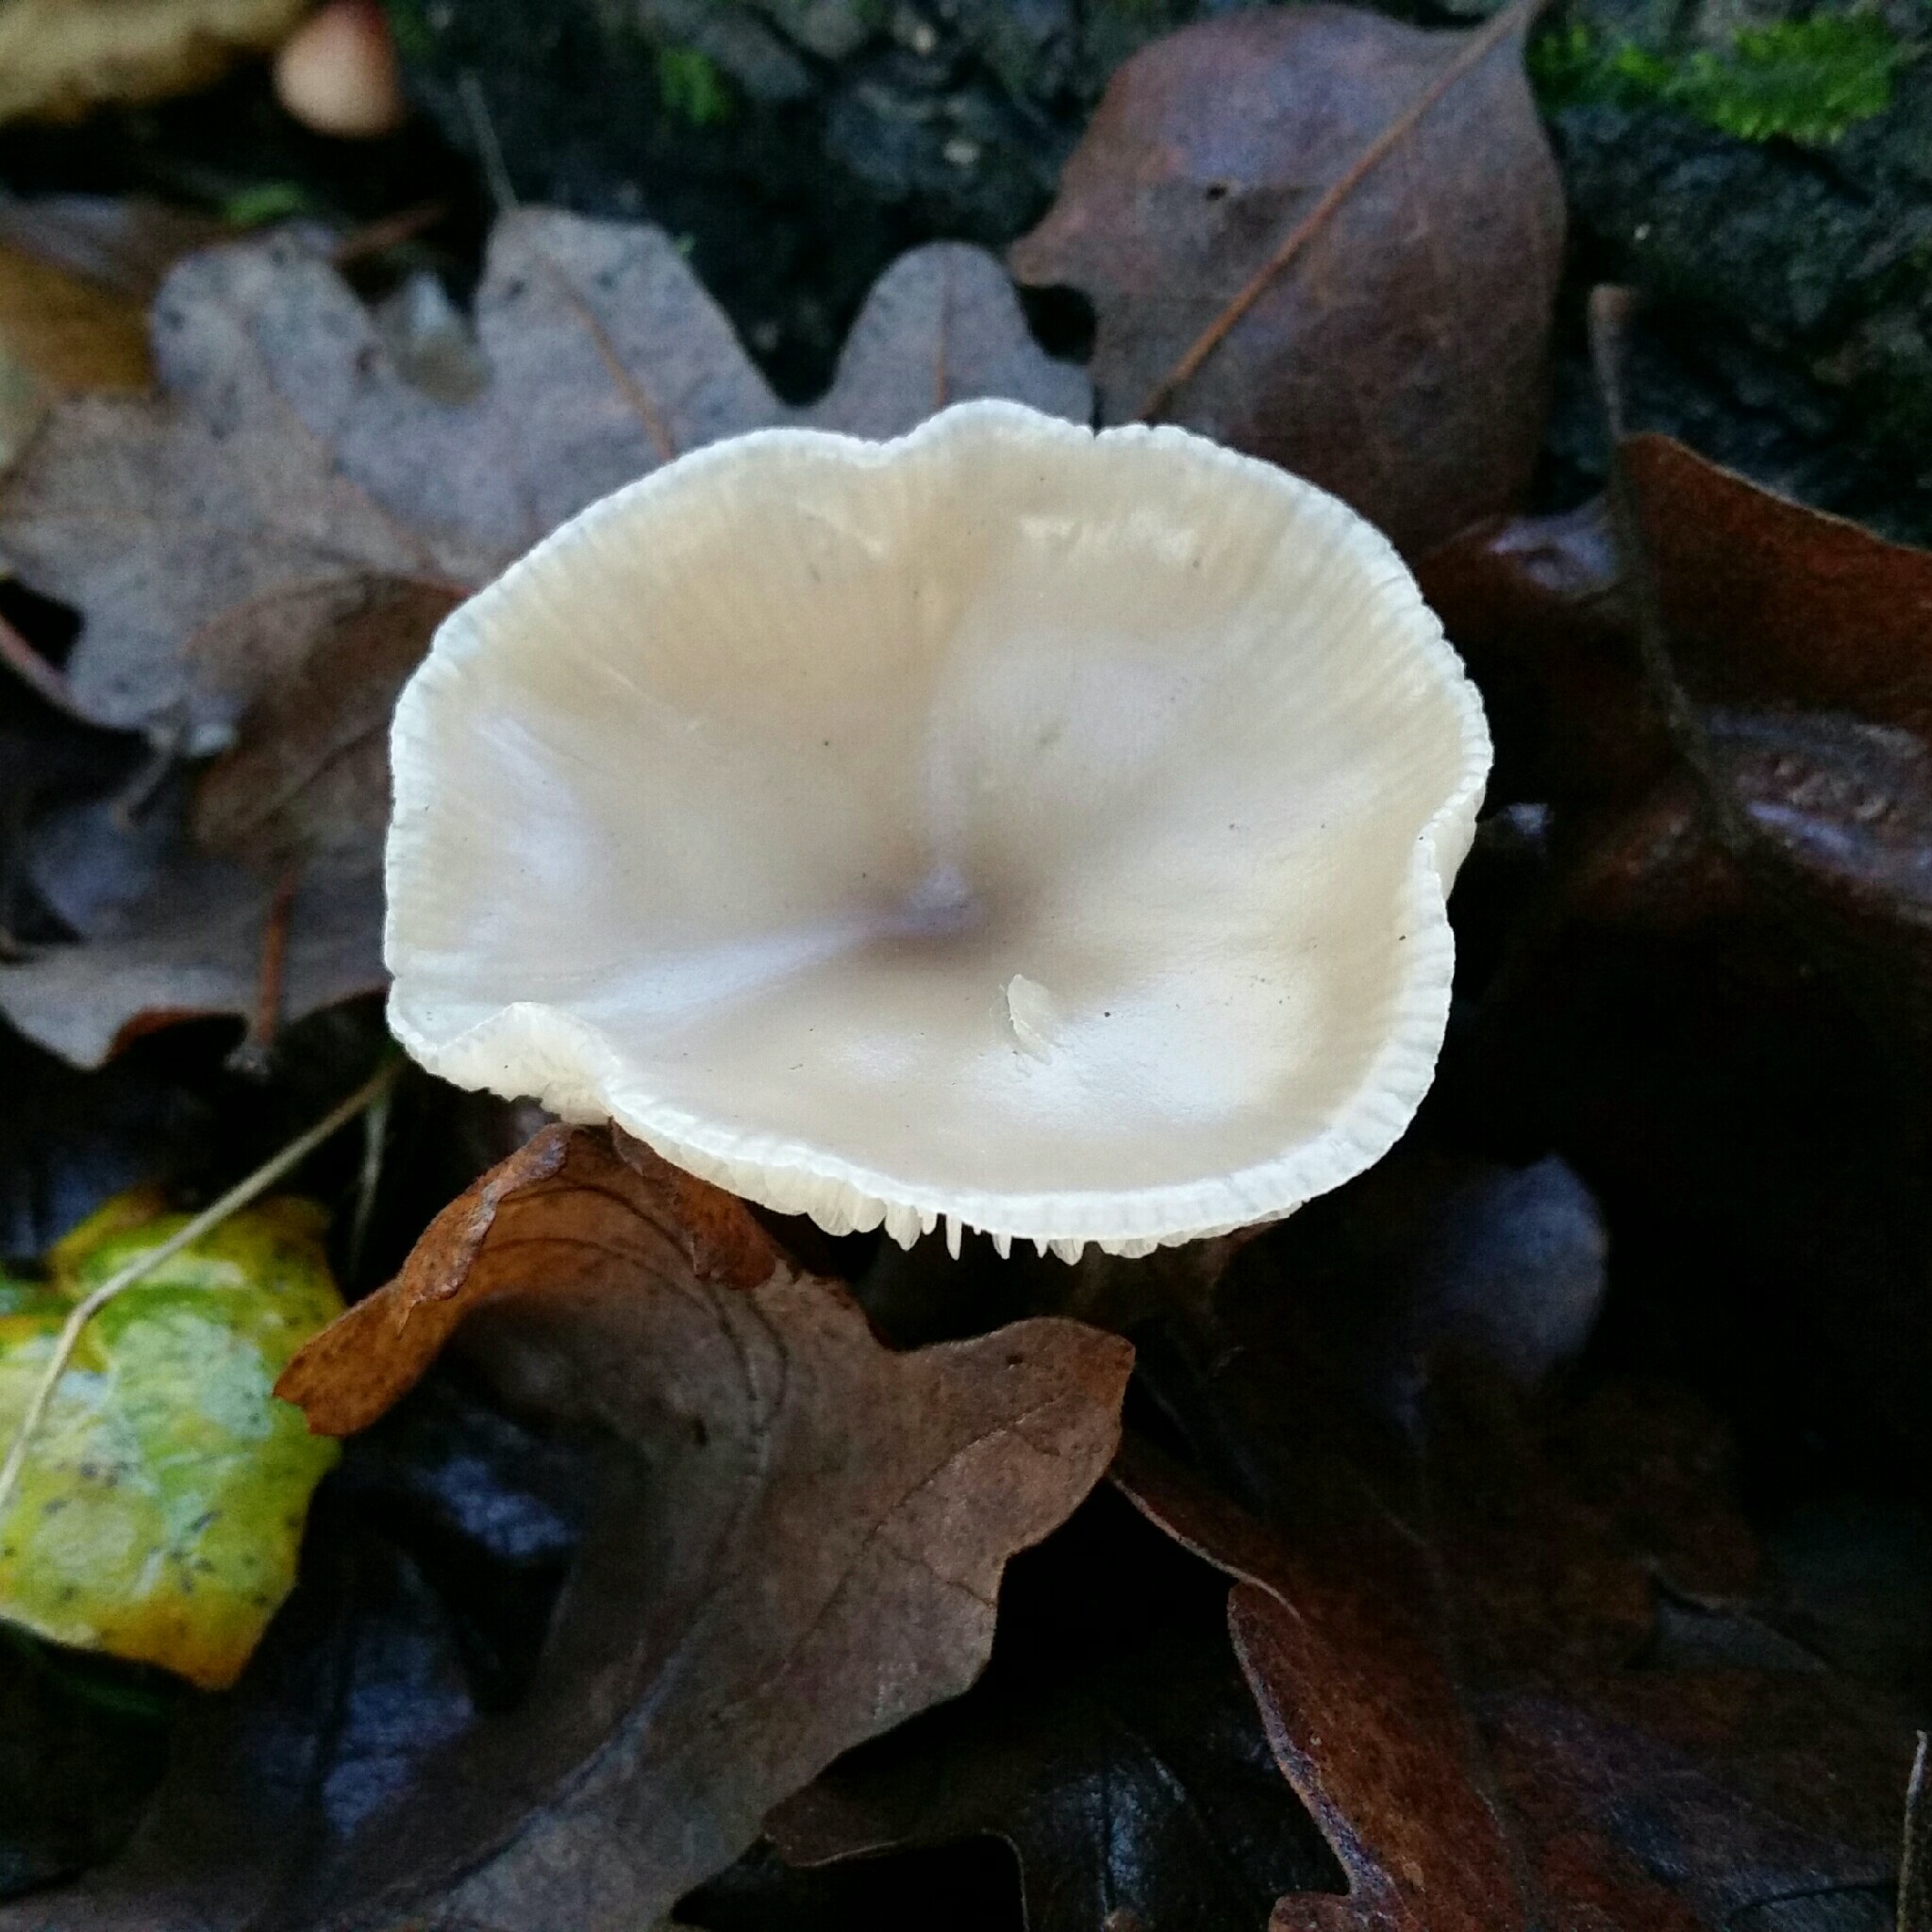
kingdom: Fungi
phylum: Basidiomycota
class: Agaricomycetes
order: Agaricales
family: Tricholomataceae
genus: Clitocybe
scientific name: Clitocybe fragrans
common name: Fragrant funnel
